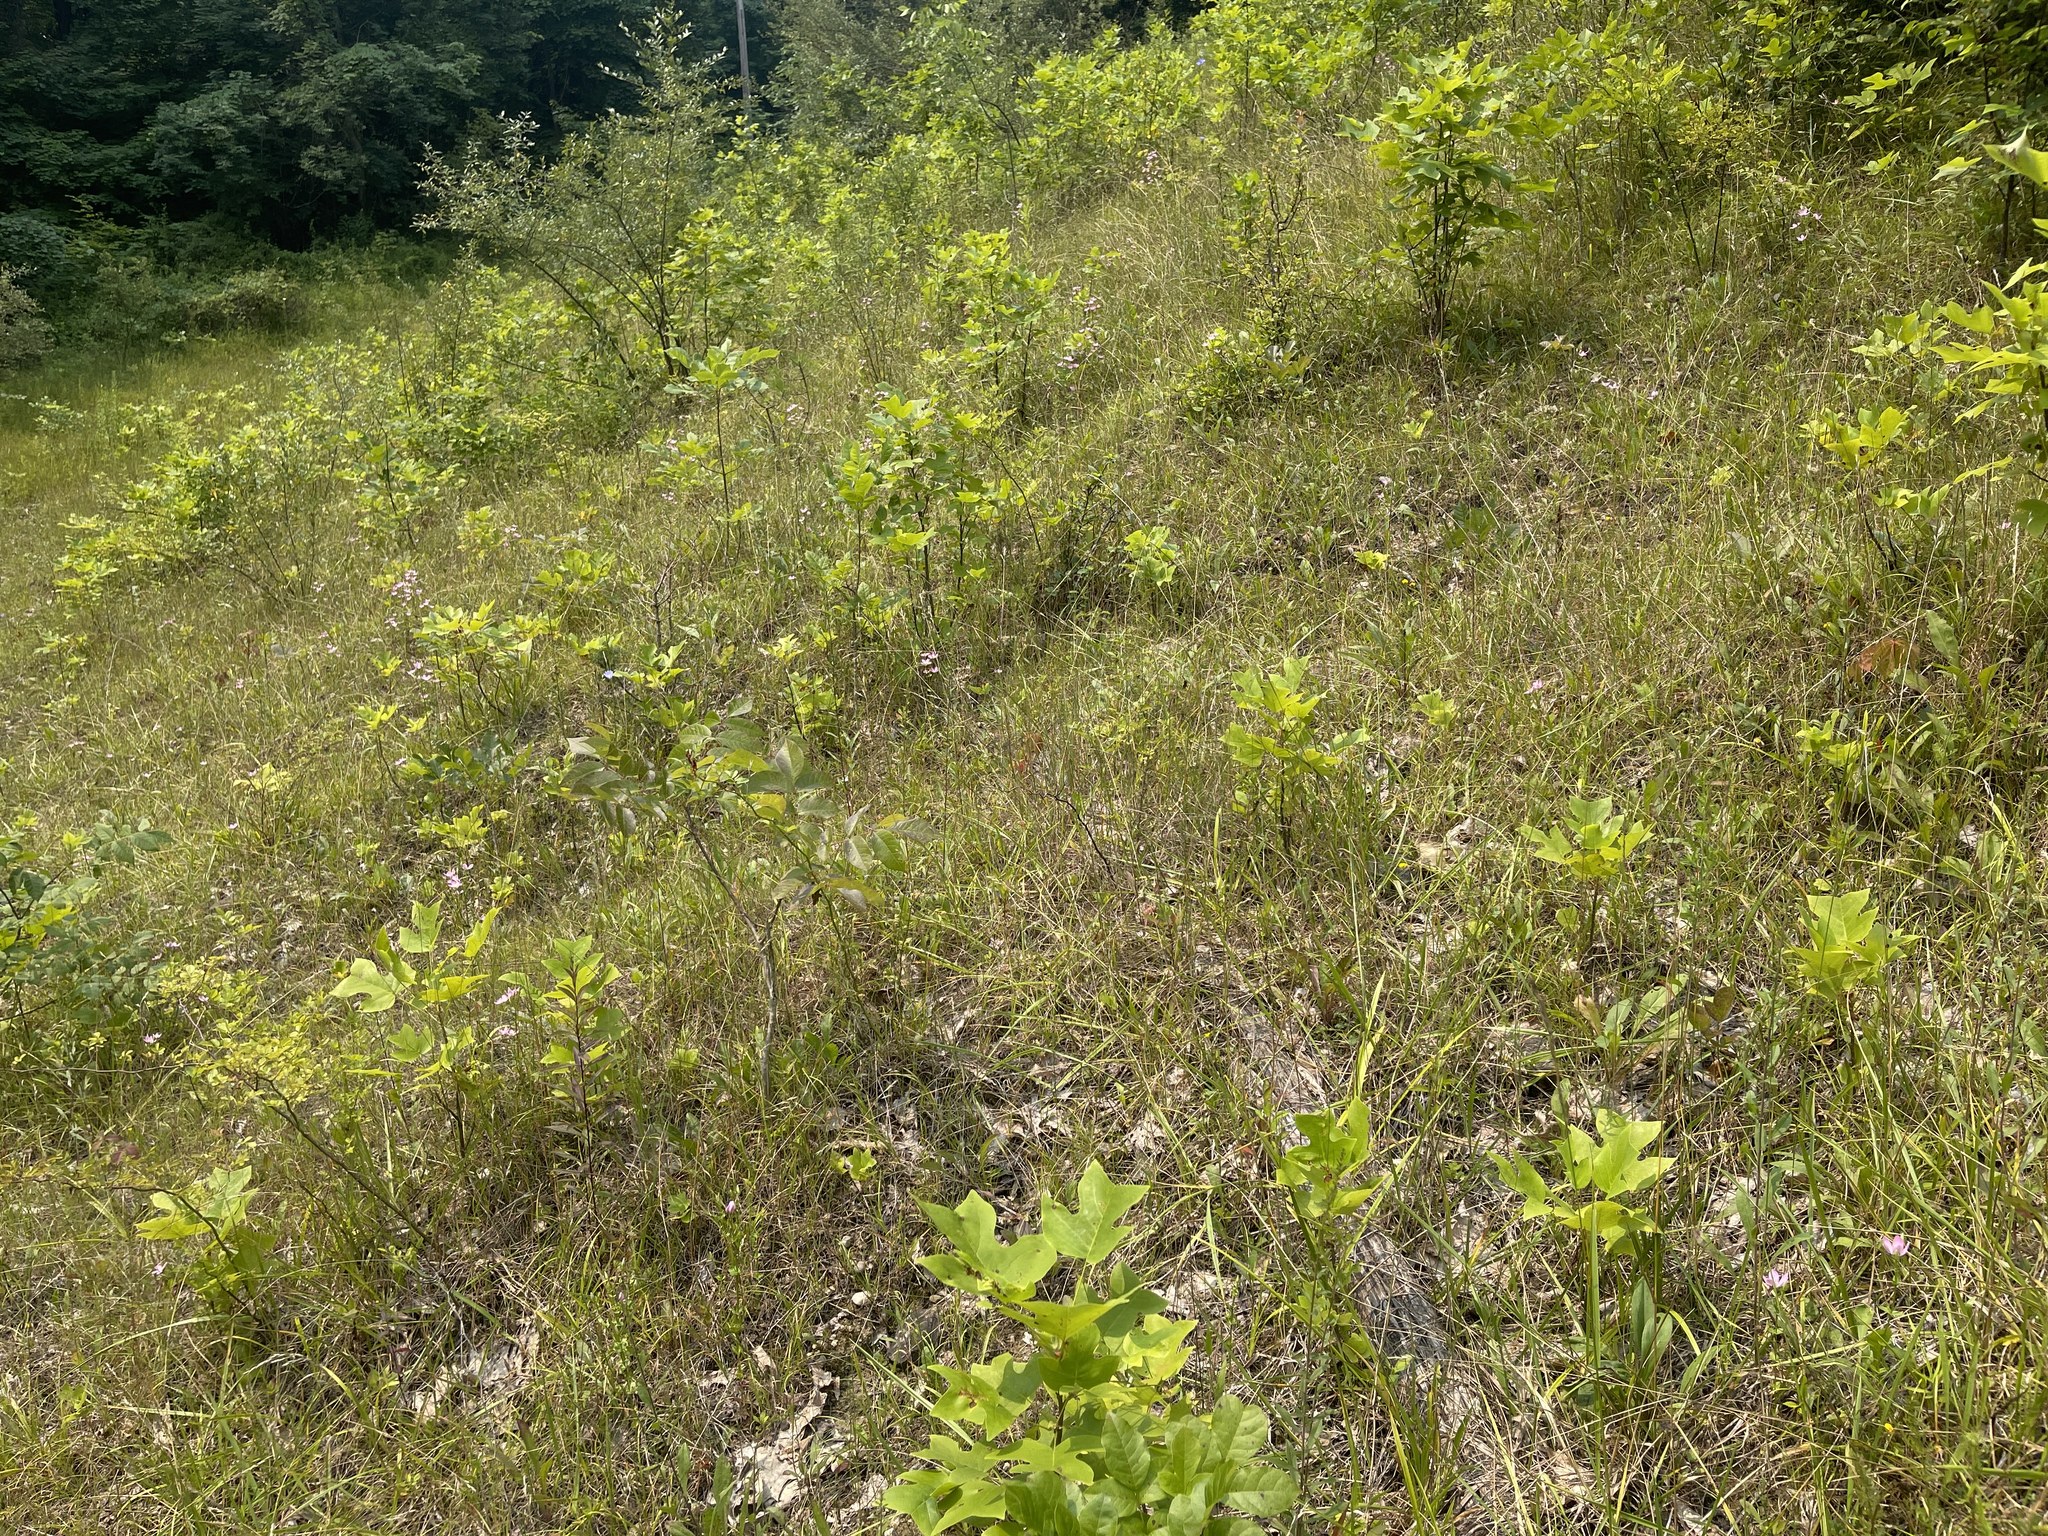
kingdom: Plantae
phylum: Tracheophyta
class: Magnoliopsida
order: Gentianales
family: Gentianaceae
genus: Sabatia
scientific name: Sabatia angularis
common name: Rose-pink
